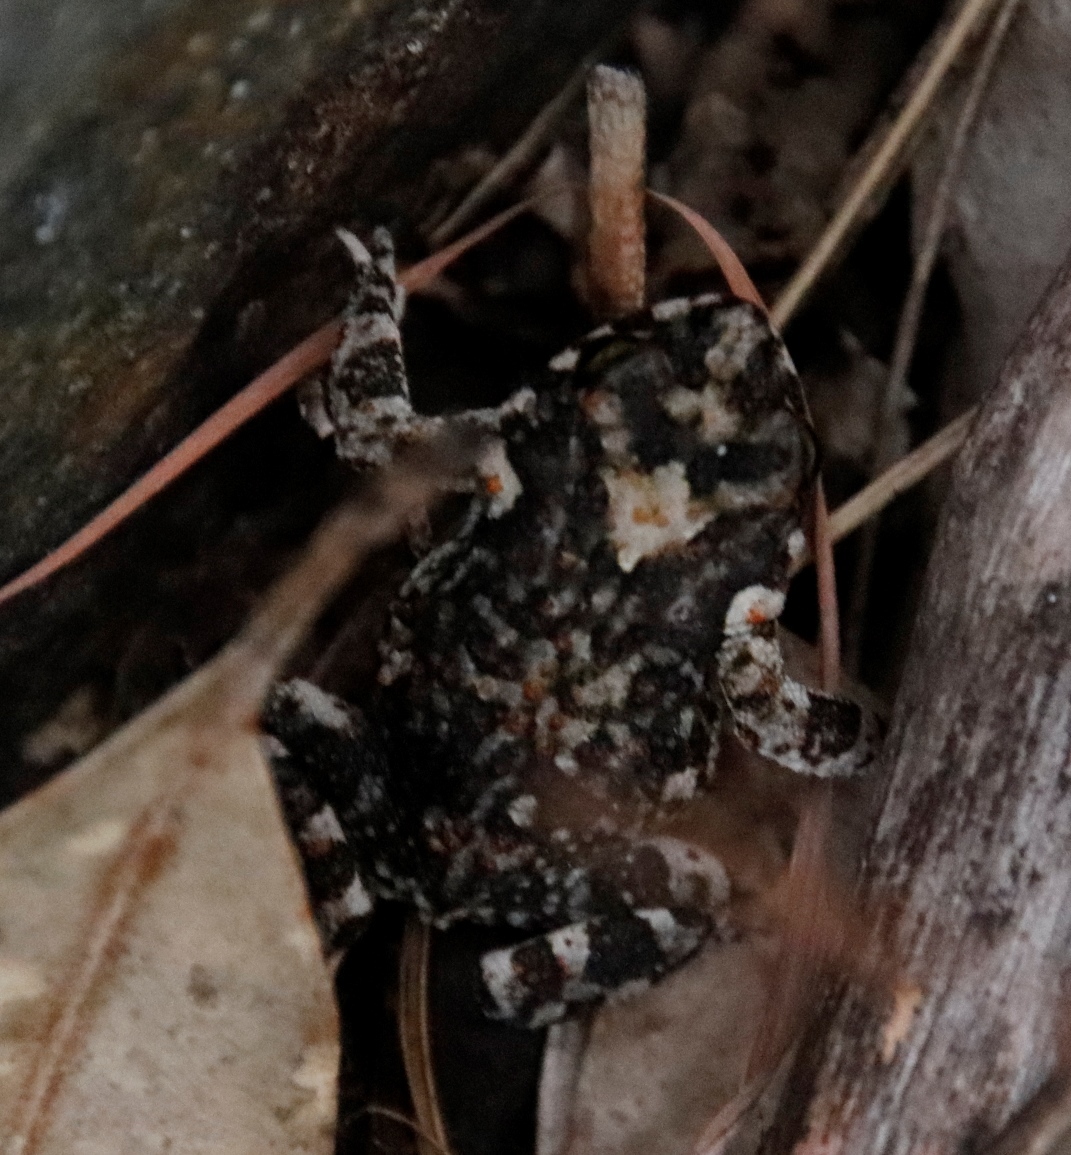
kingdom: Animalia
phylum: Chordata
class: Amphibia
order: Anura
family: Bufonidae
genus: Poyntonophrynus
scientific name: Poyntonophrynus fenoulheti
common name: Fenoulhet's toad
